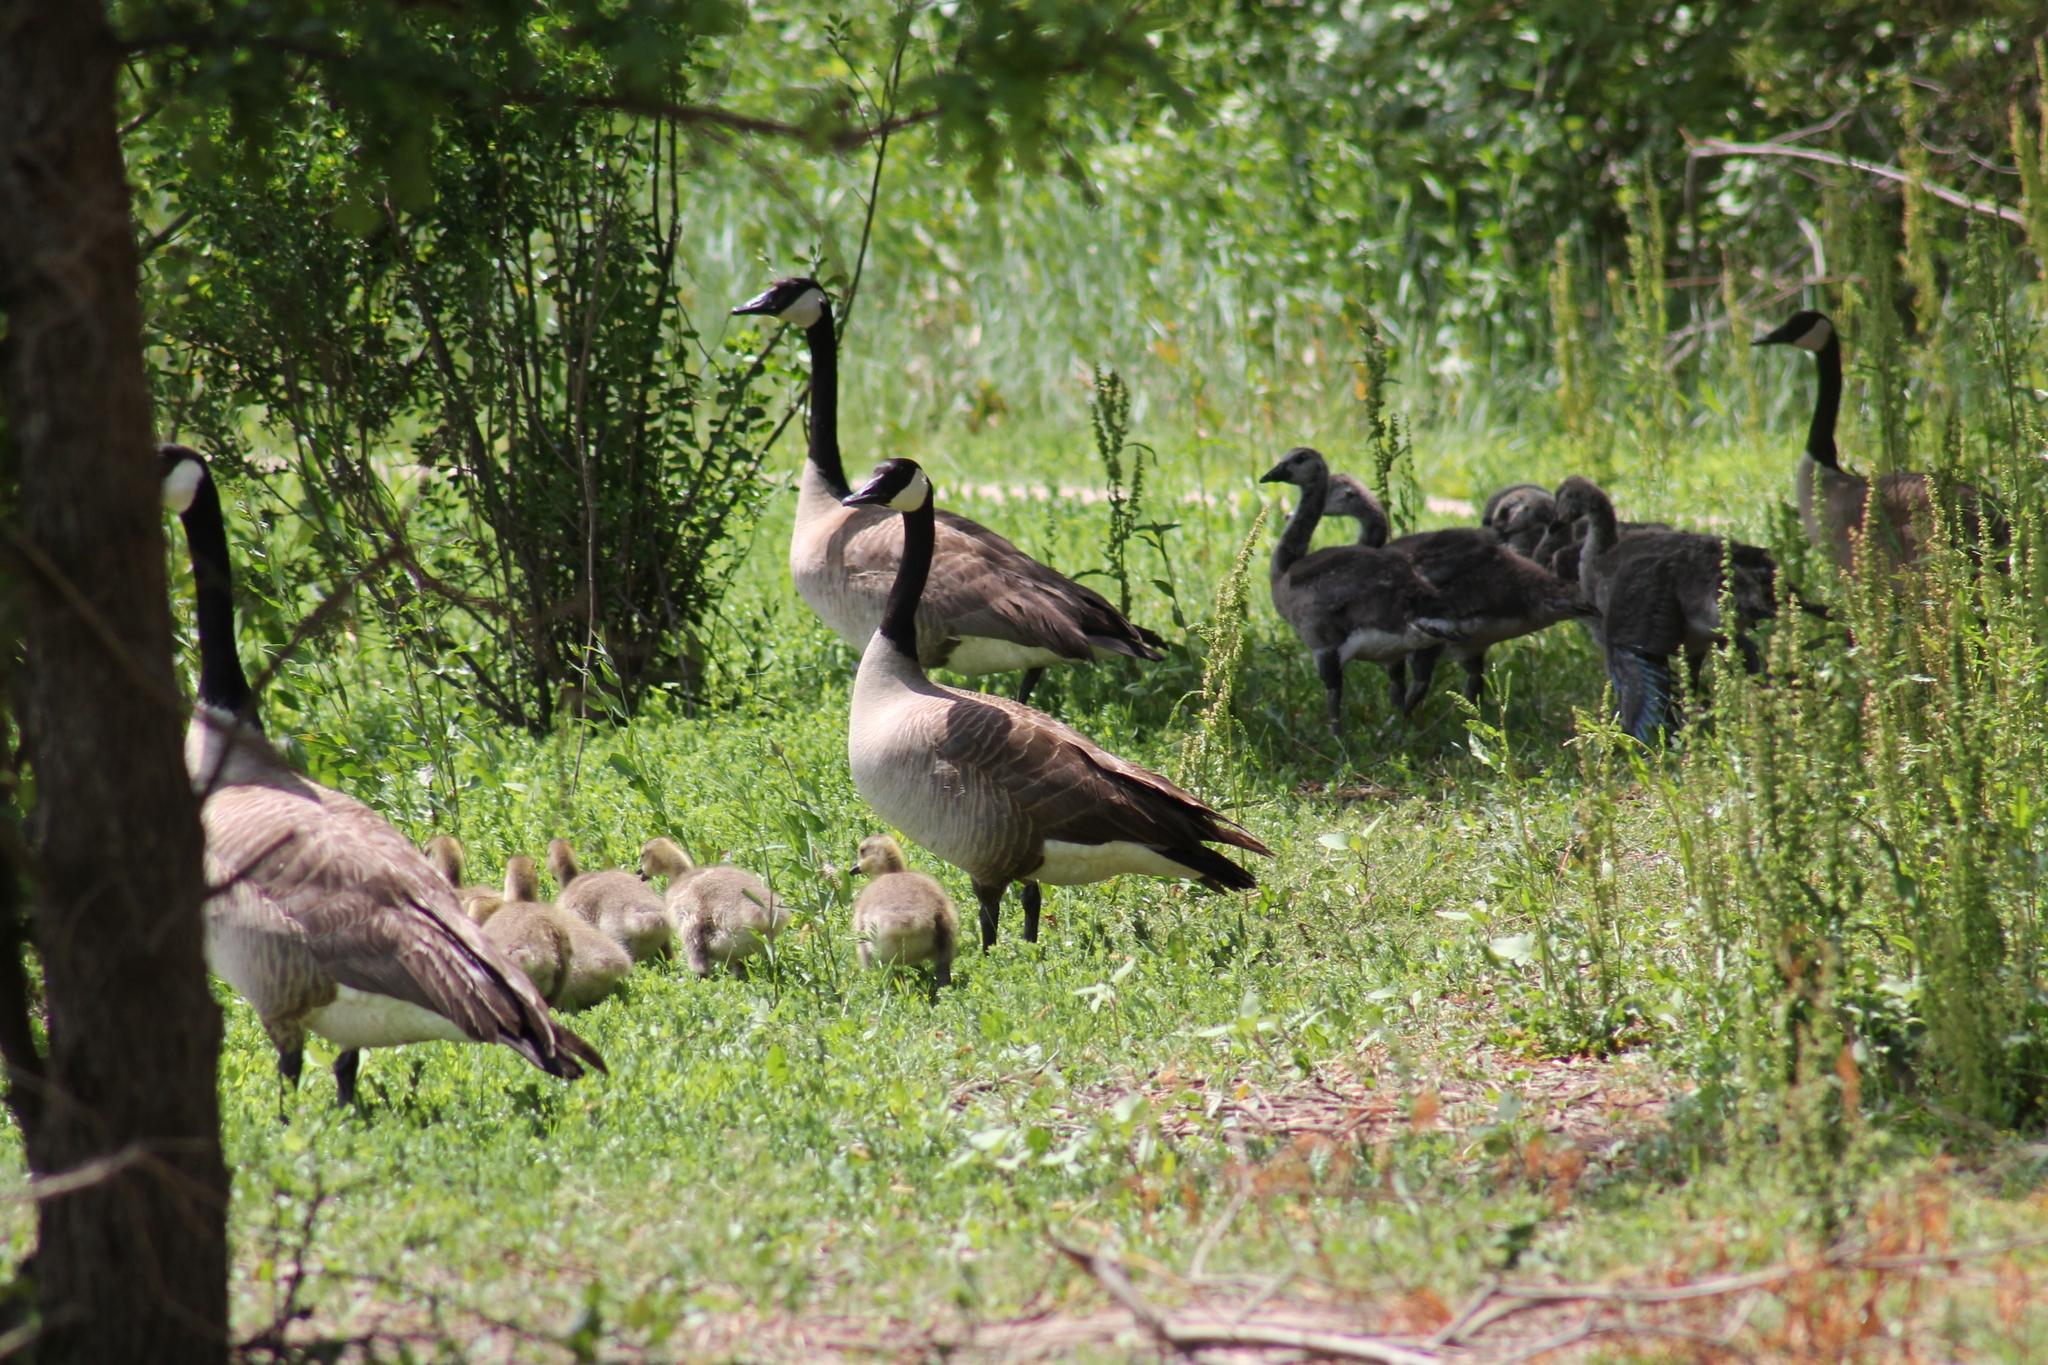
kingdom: Animalia
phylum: Chordata
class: Aves
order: Anseriformes
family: Anatidae
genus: Branta
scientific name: Branta canadensis
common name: Canada goose
